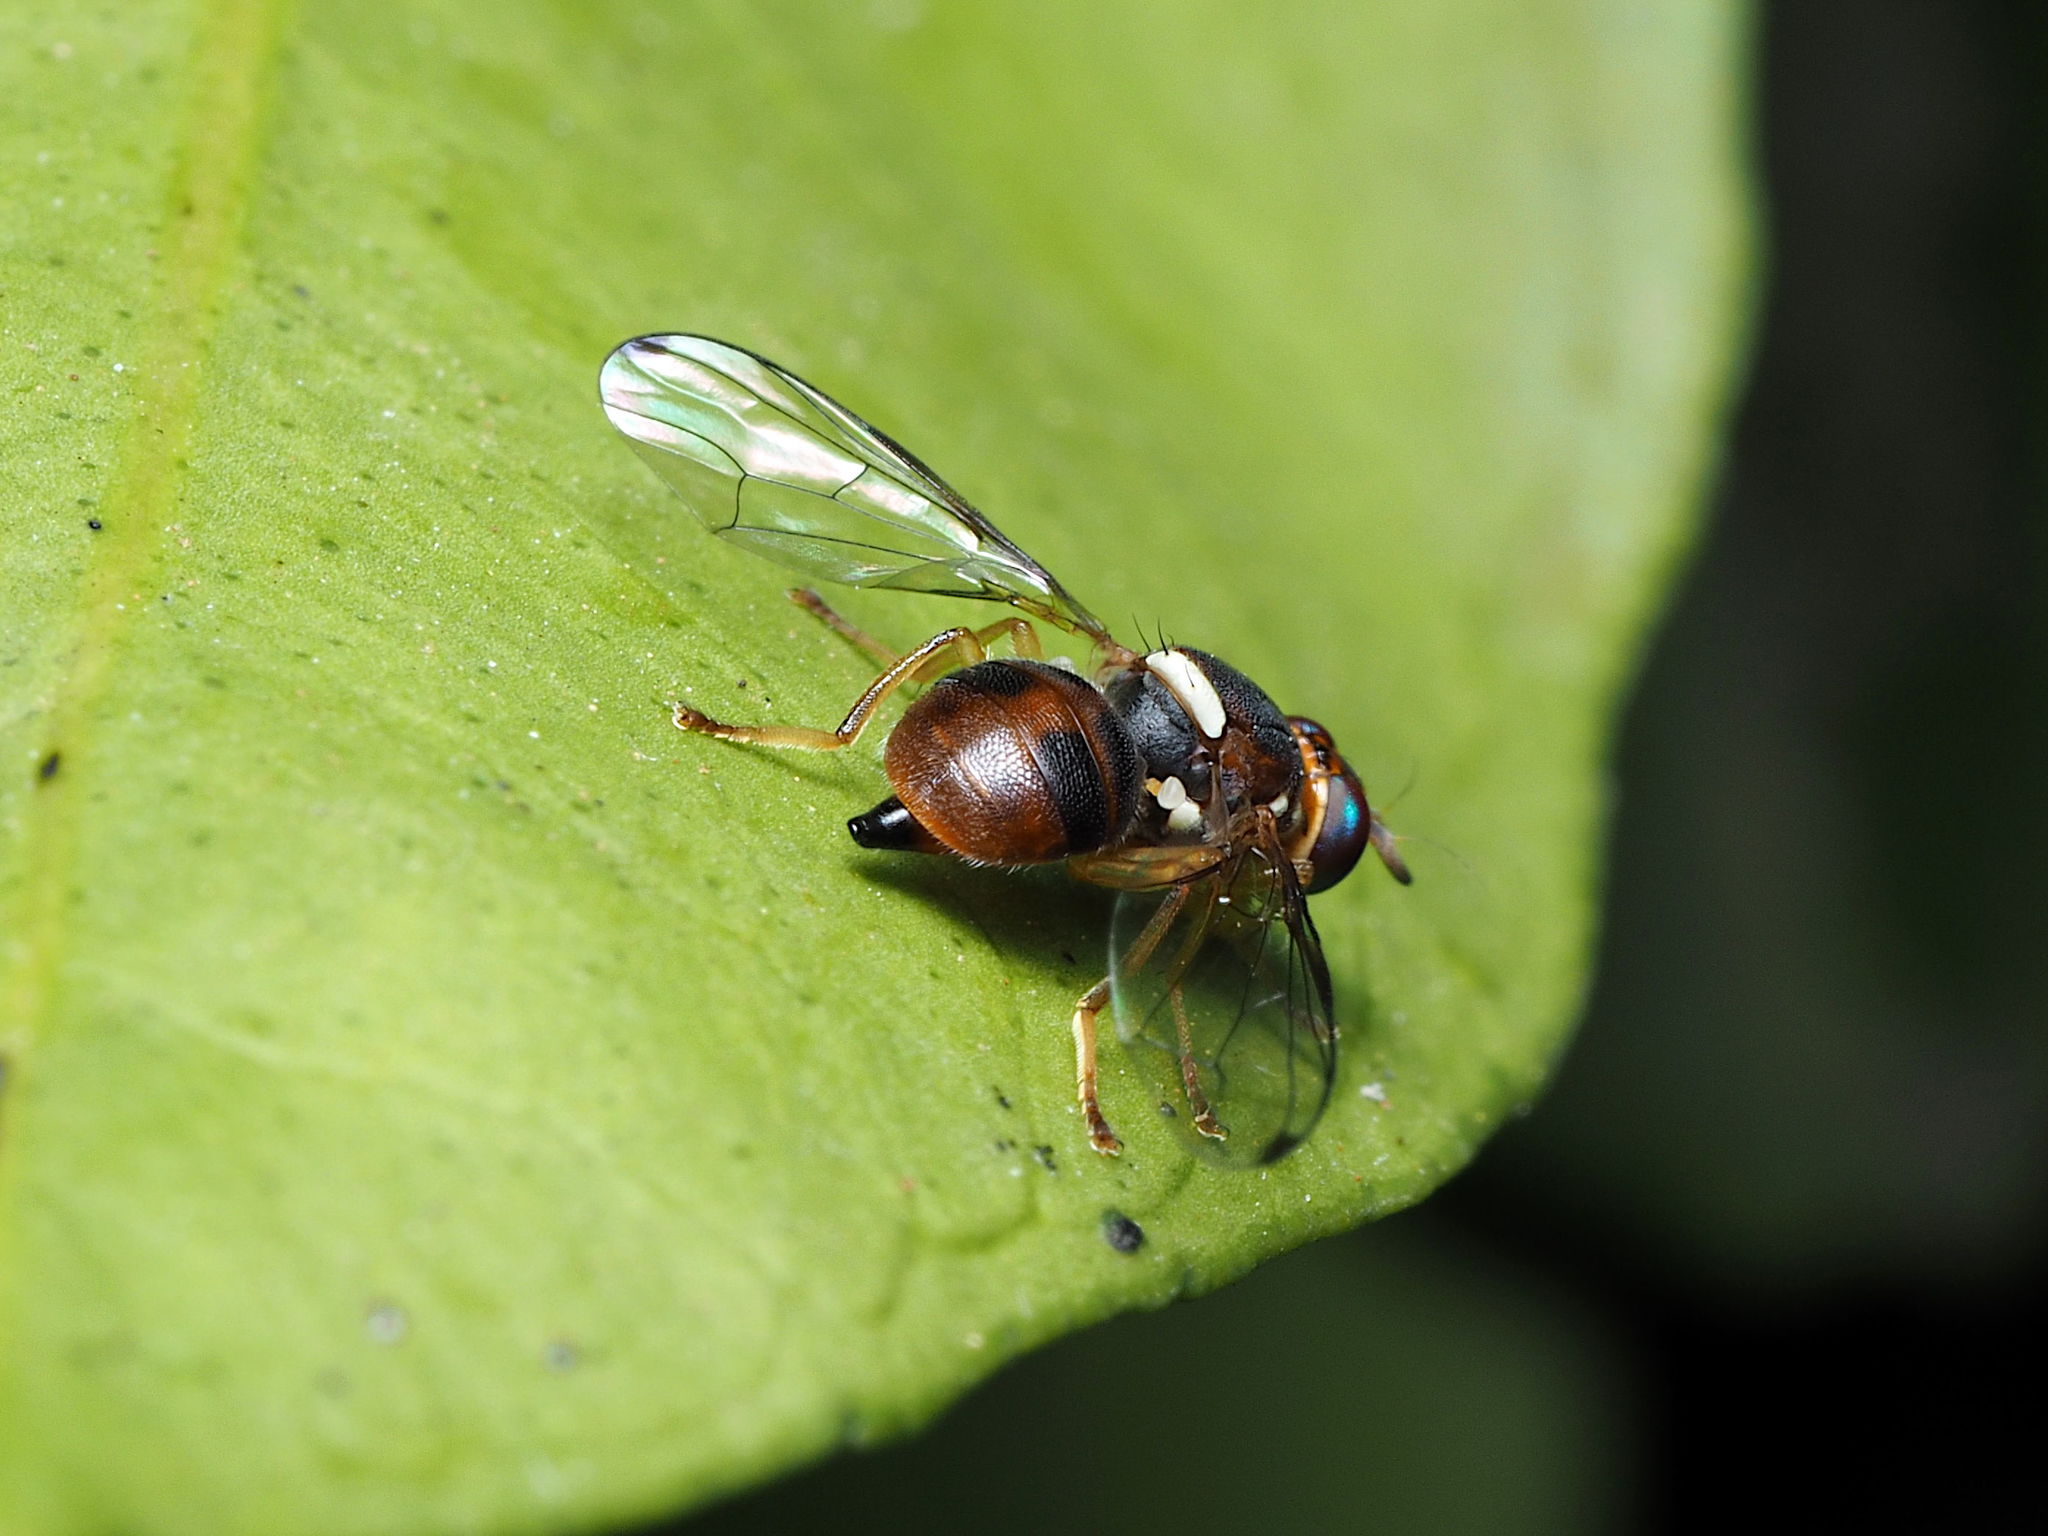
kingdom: Animalia
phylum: Arthropoda
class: Insecta
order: Diptera
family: Tephritidae
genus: Bactrocera
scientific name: Bactrocera oleae
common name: Olive fruit fly
